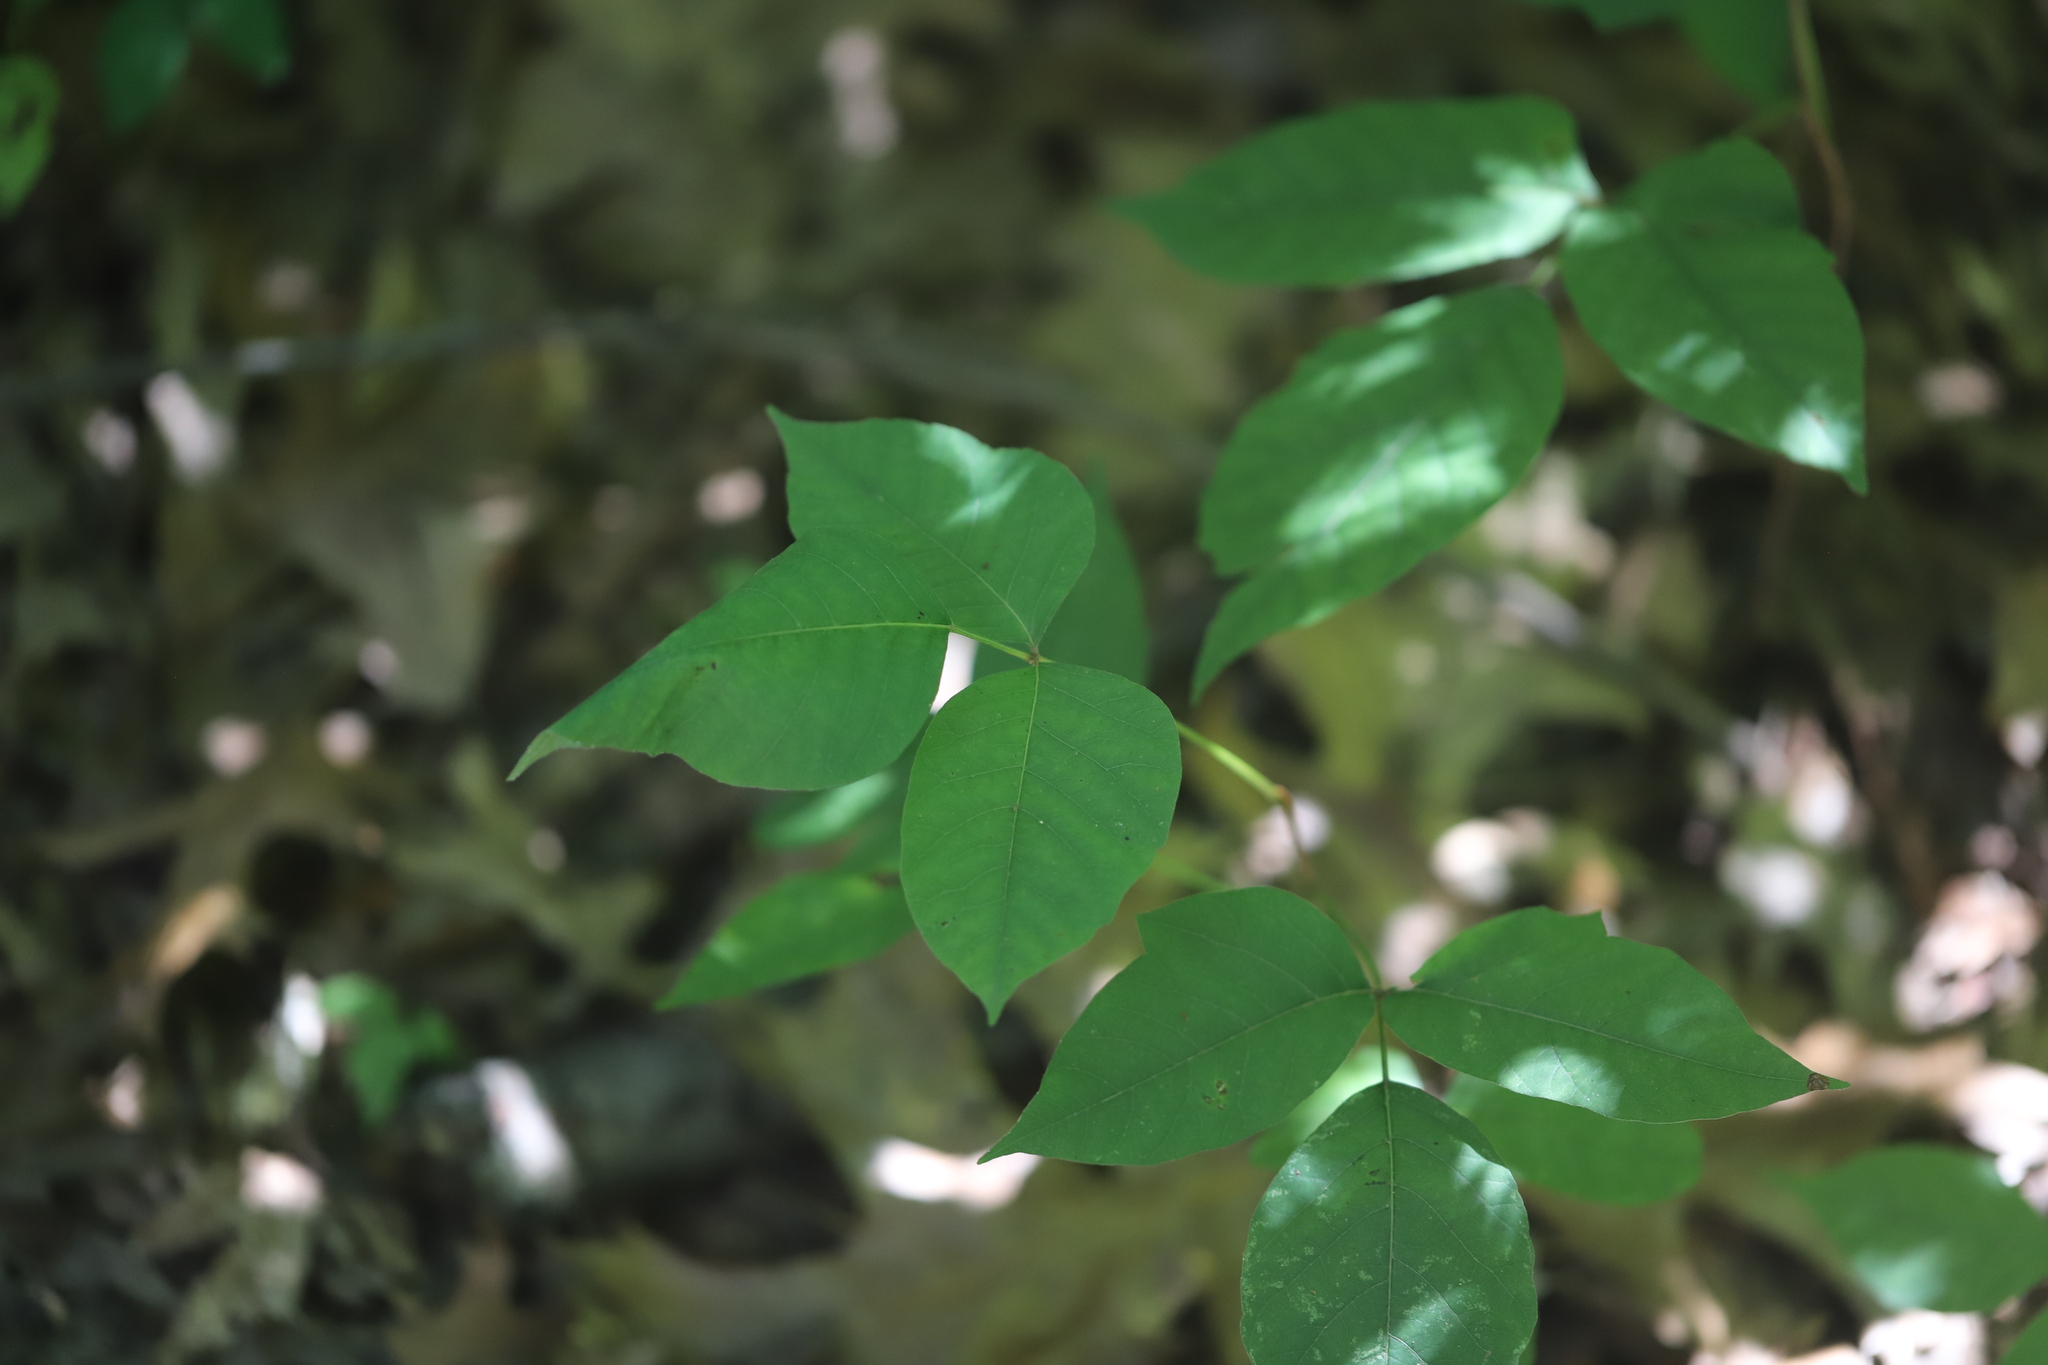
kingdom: Plantae
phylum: Tracheophyta
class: Magnoliopsida
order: Sapindales
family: Anacardiaceae
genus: Toxicodendron
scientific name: Toxicodendron radicans
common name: Poison ivy
